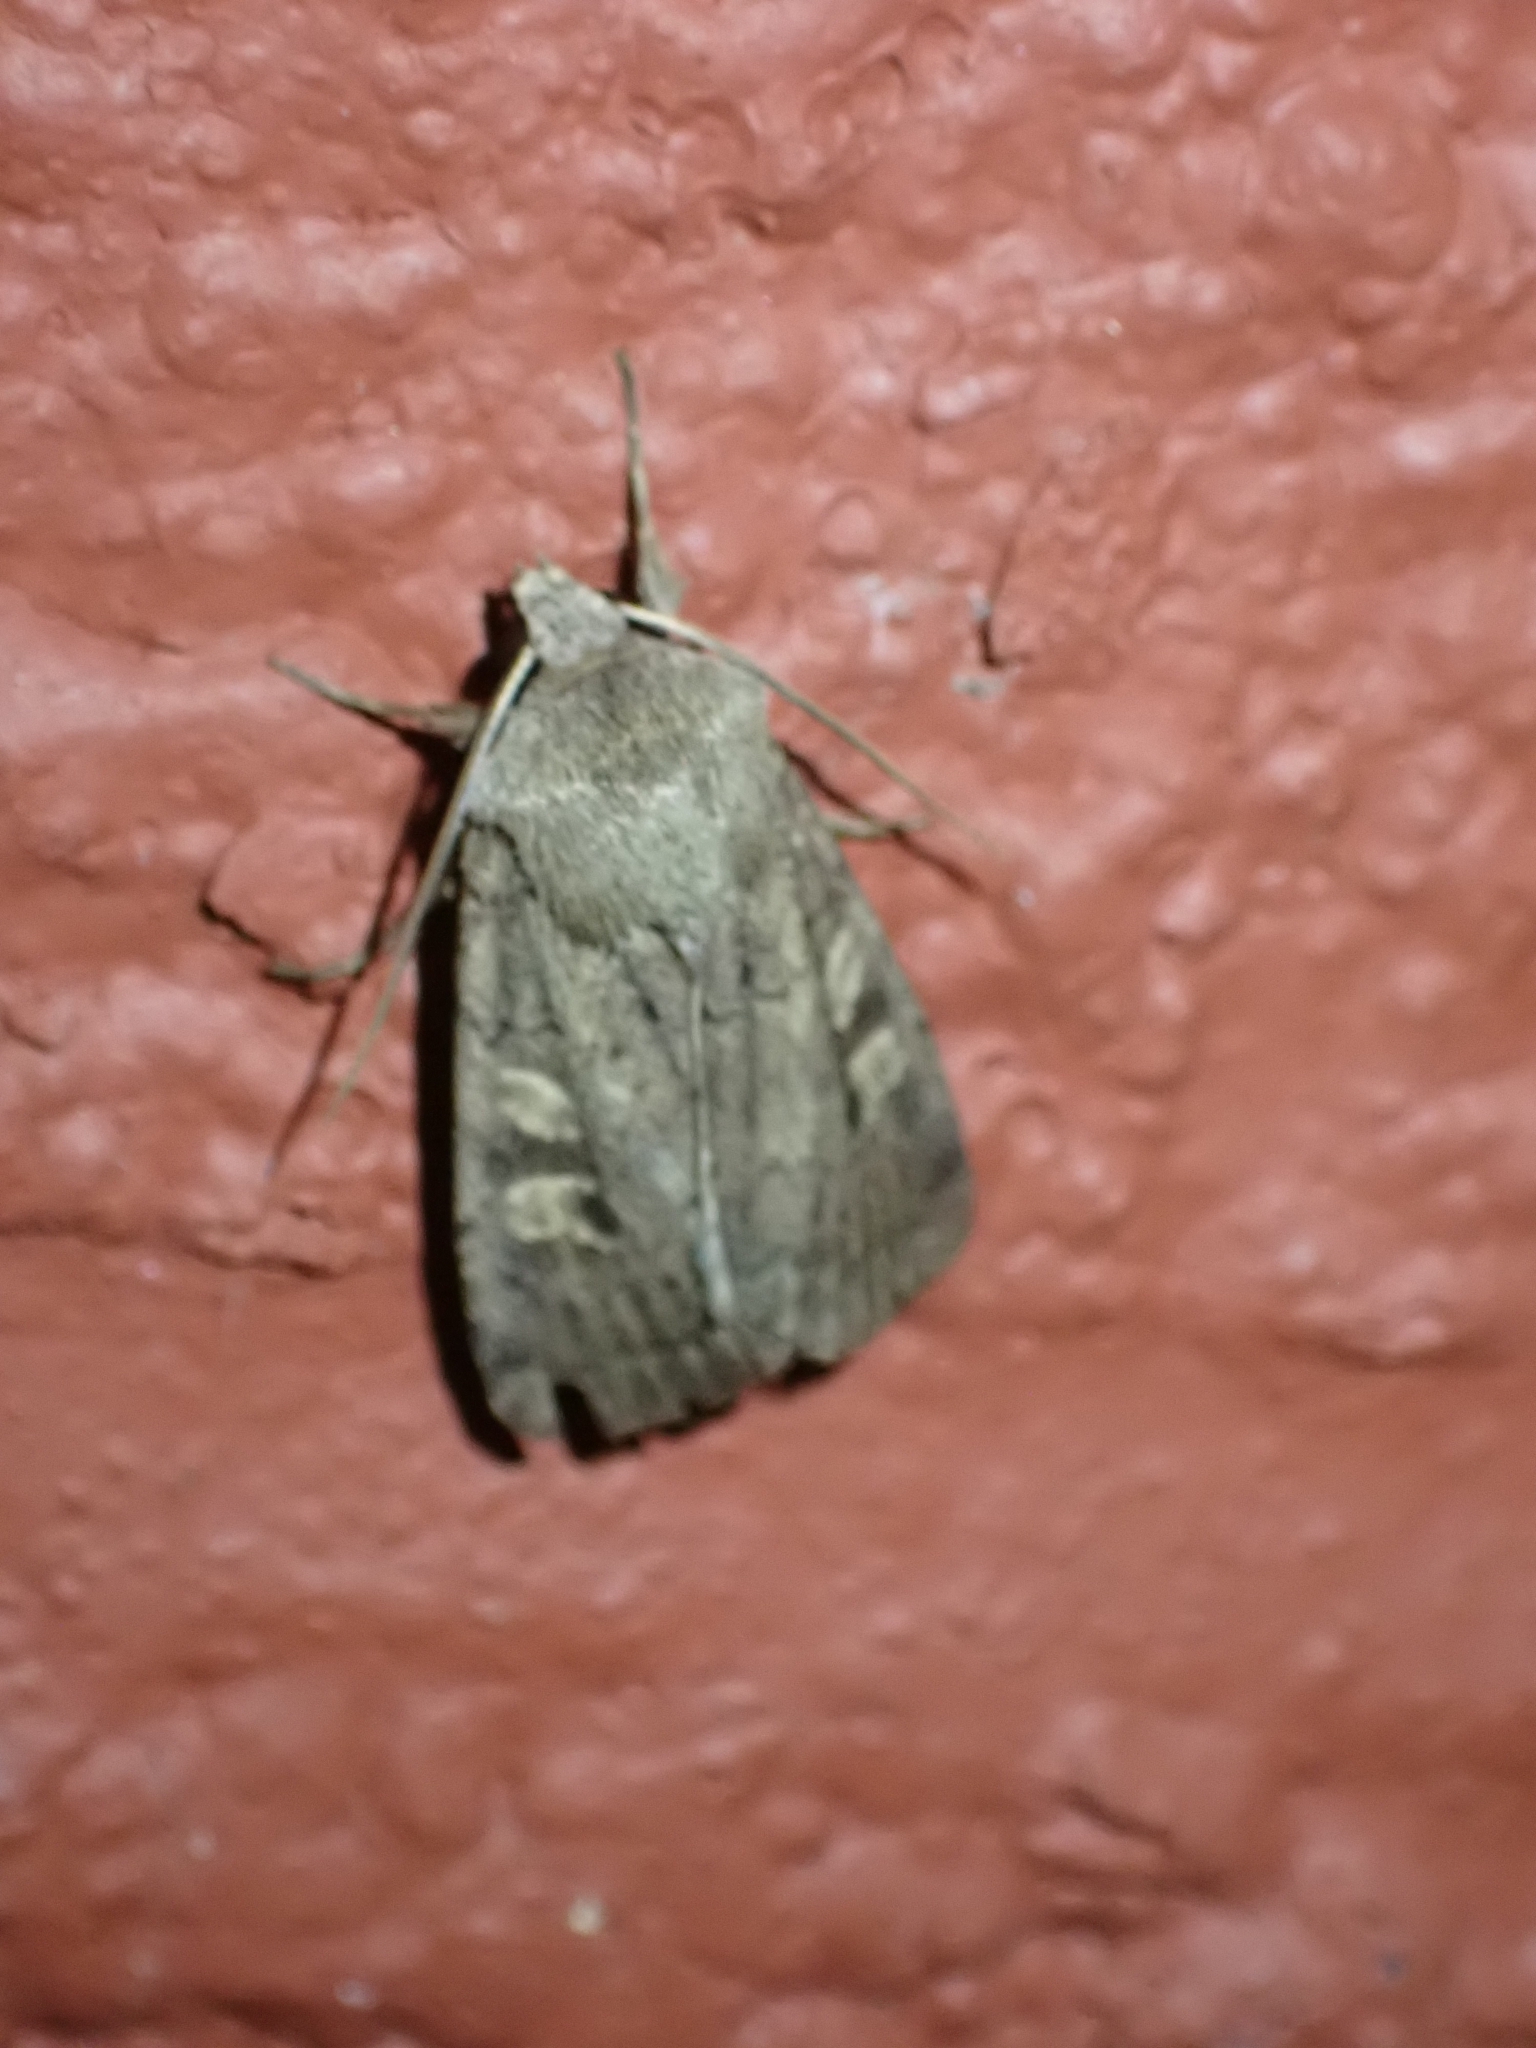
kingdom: Animalia
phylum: Arthropoda
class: Insecta
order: Lepidoptera
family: Noctuidae
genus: Xestia
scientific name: Xestia xanthographa
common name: Square-spot rustic
